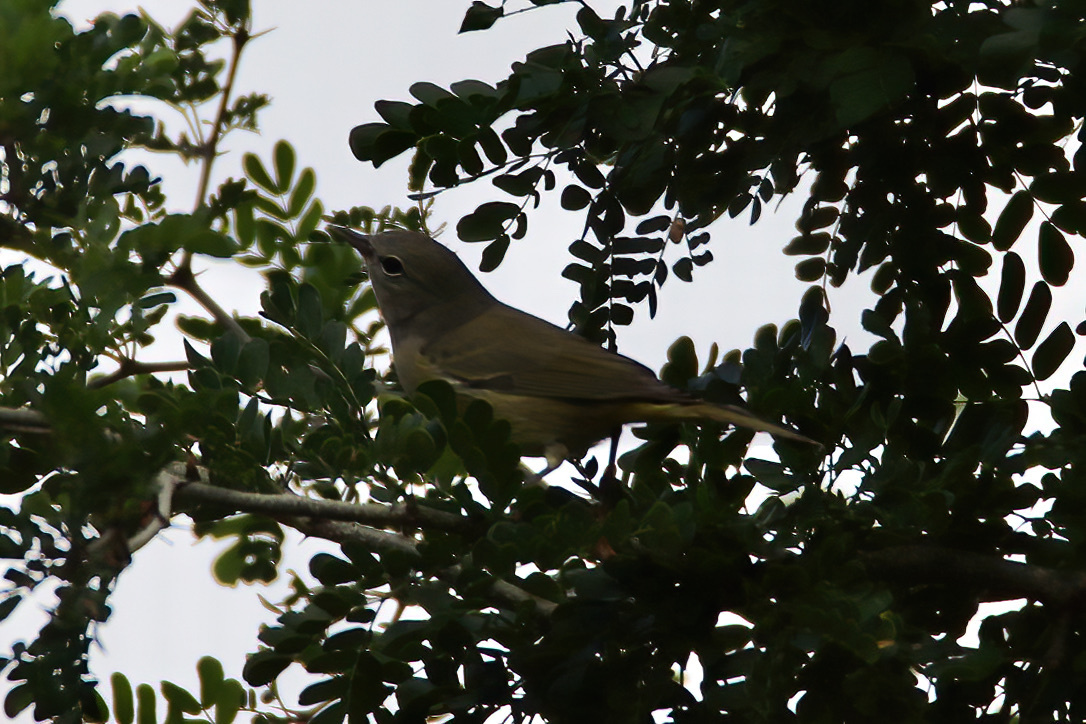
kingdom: Animalia
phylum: Chordata
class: Aves
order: Passeriformes
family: Parulidae
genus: Leiothlypis
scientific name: Leiothlypis celata
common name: Orange-crowned warbler
